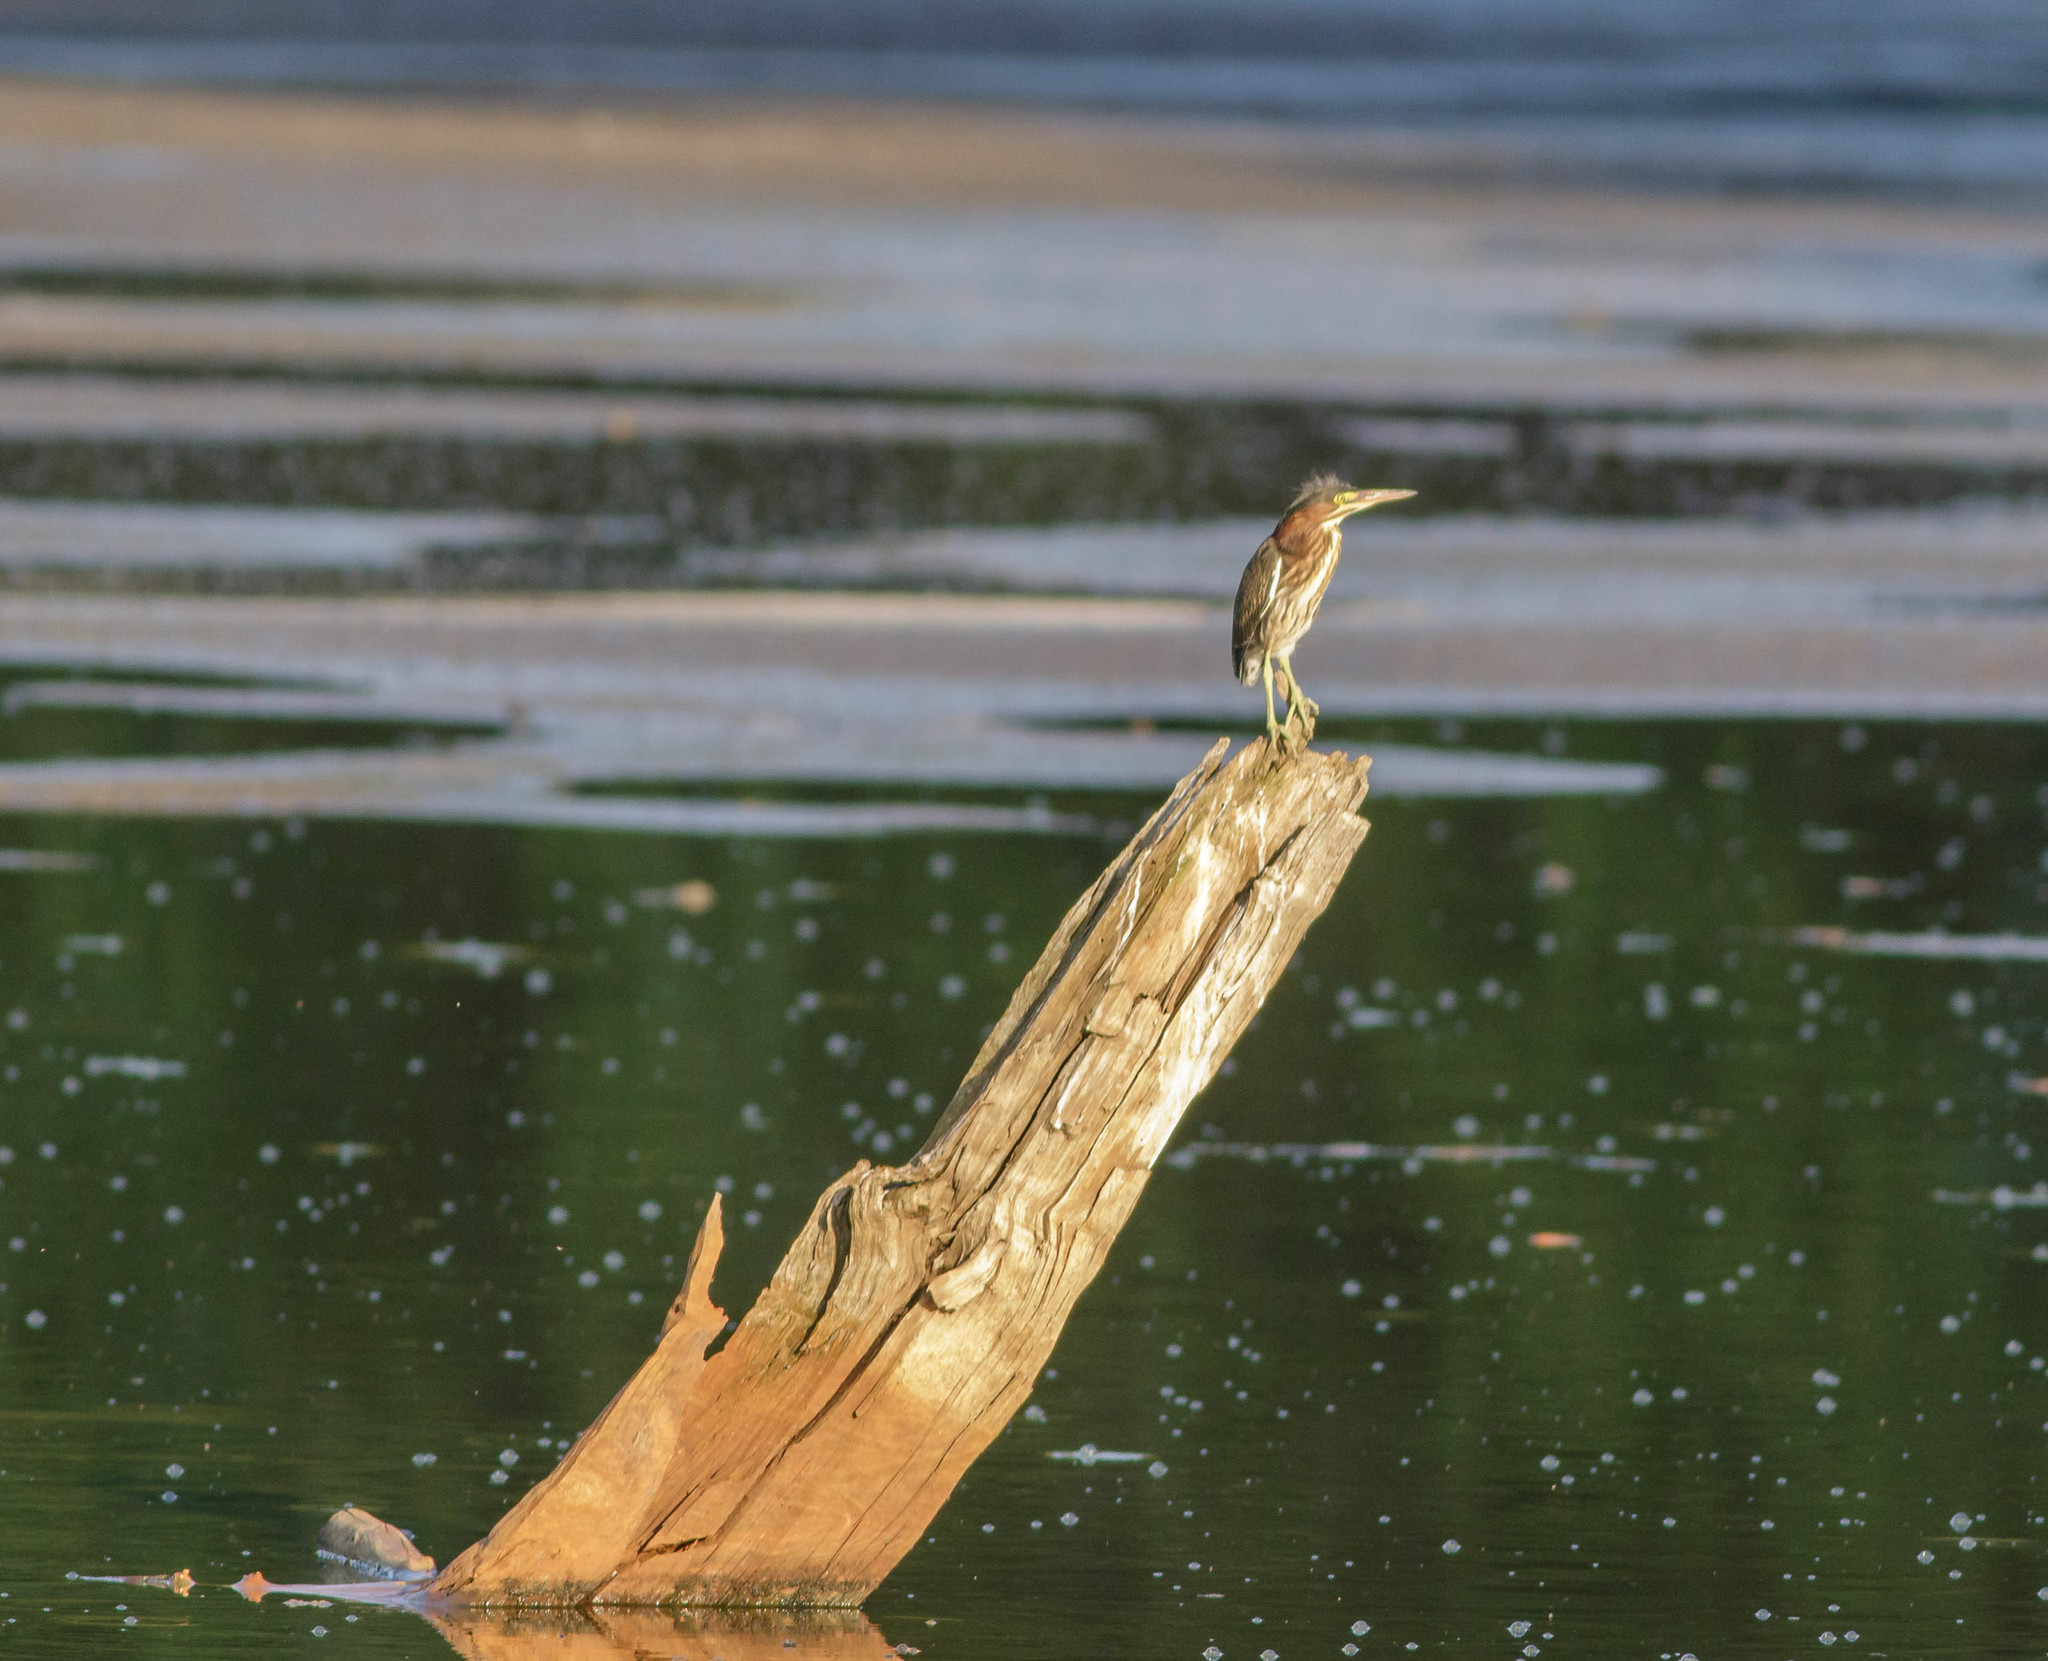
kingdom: Animalia
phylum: Chordata
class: Aves
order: Pelecaniformes
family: Ardeidae
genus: Butorides
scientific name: Butorides virescens
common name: Green heron
